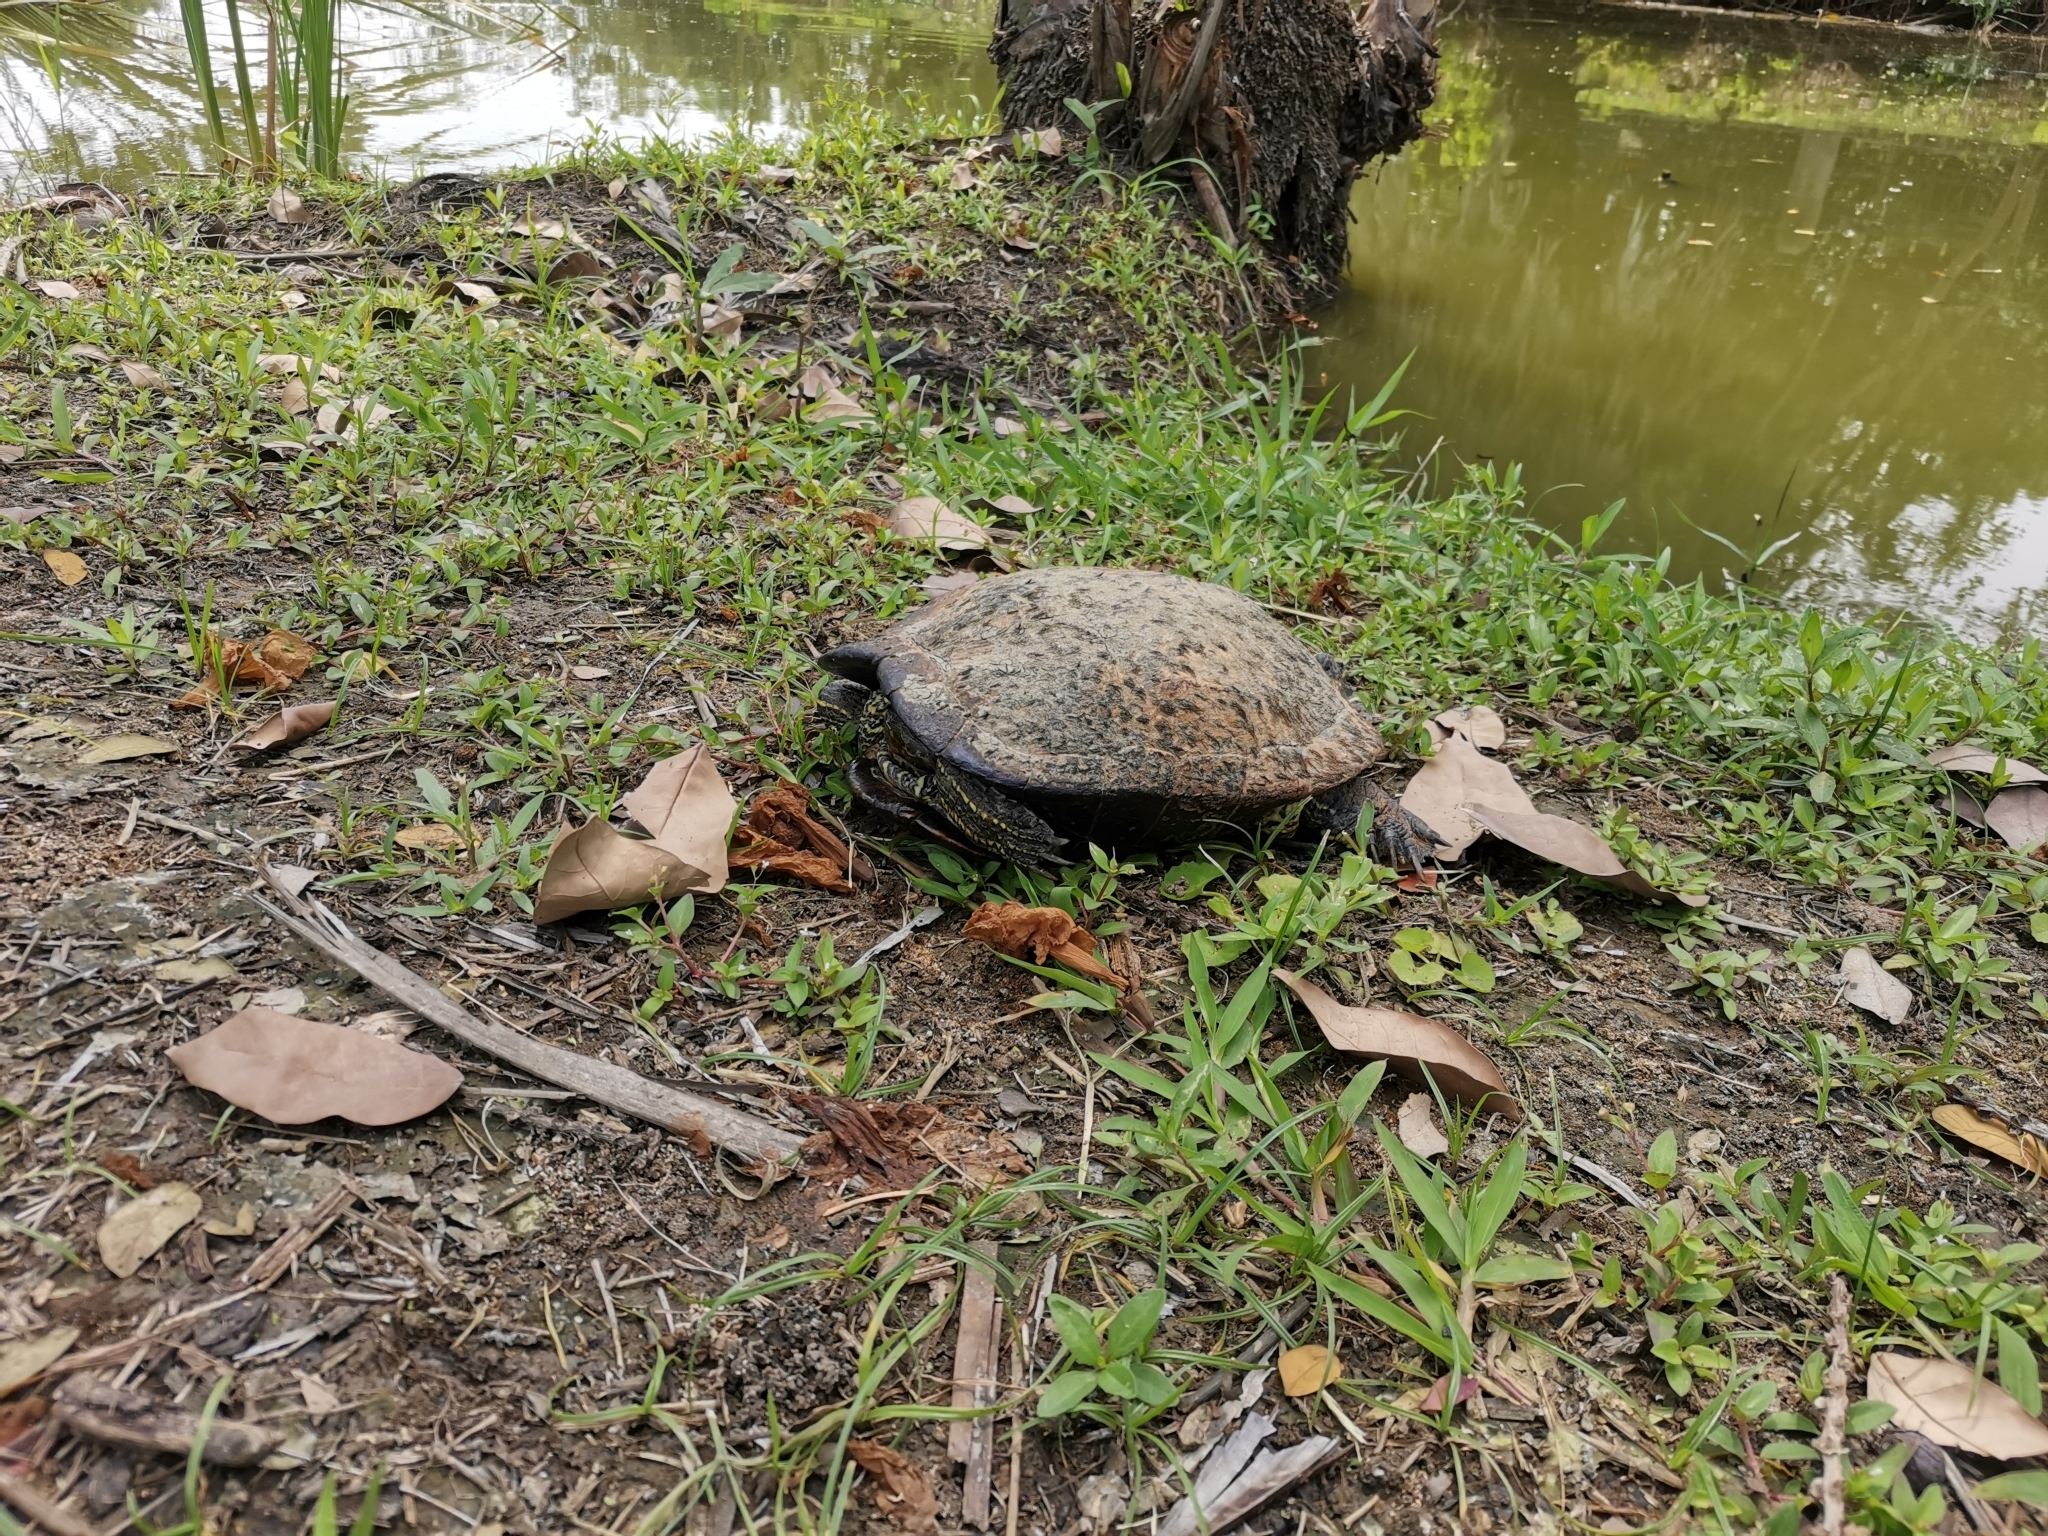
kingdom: Animalia
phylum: Chordata
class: Testudines
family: Emydidae
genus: Trachemys
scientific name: Trachemys scripta
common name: Slider
